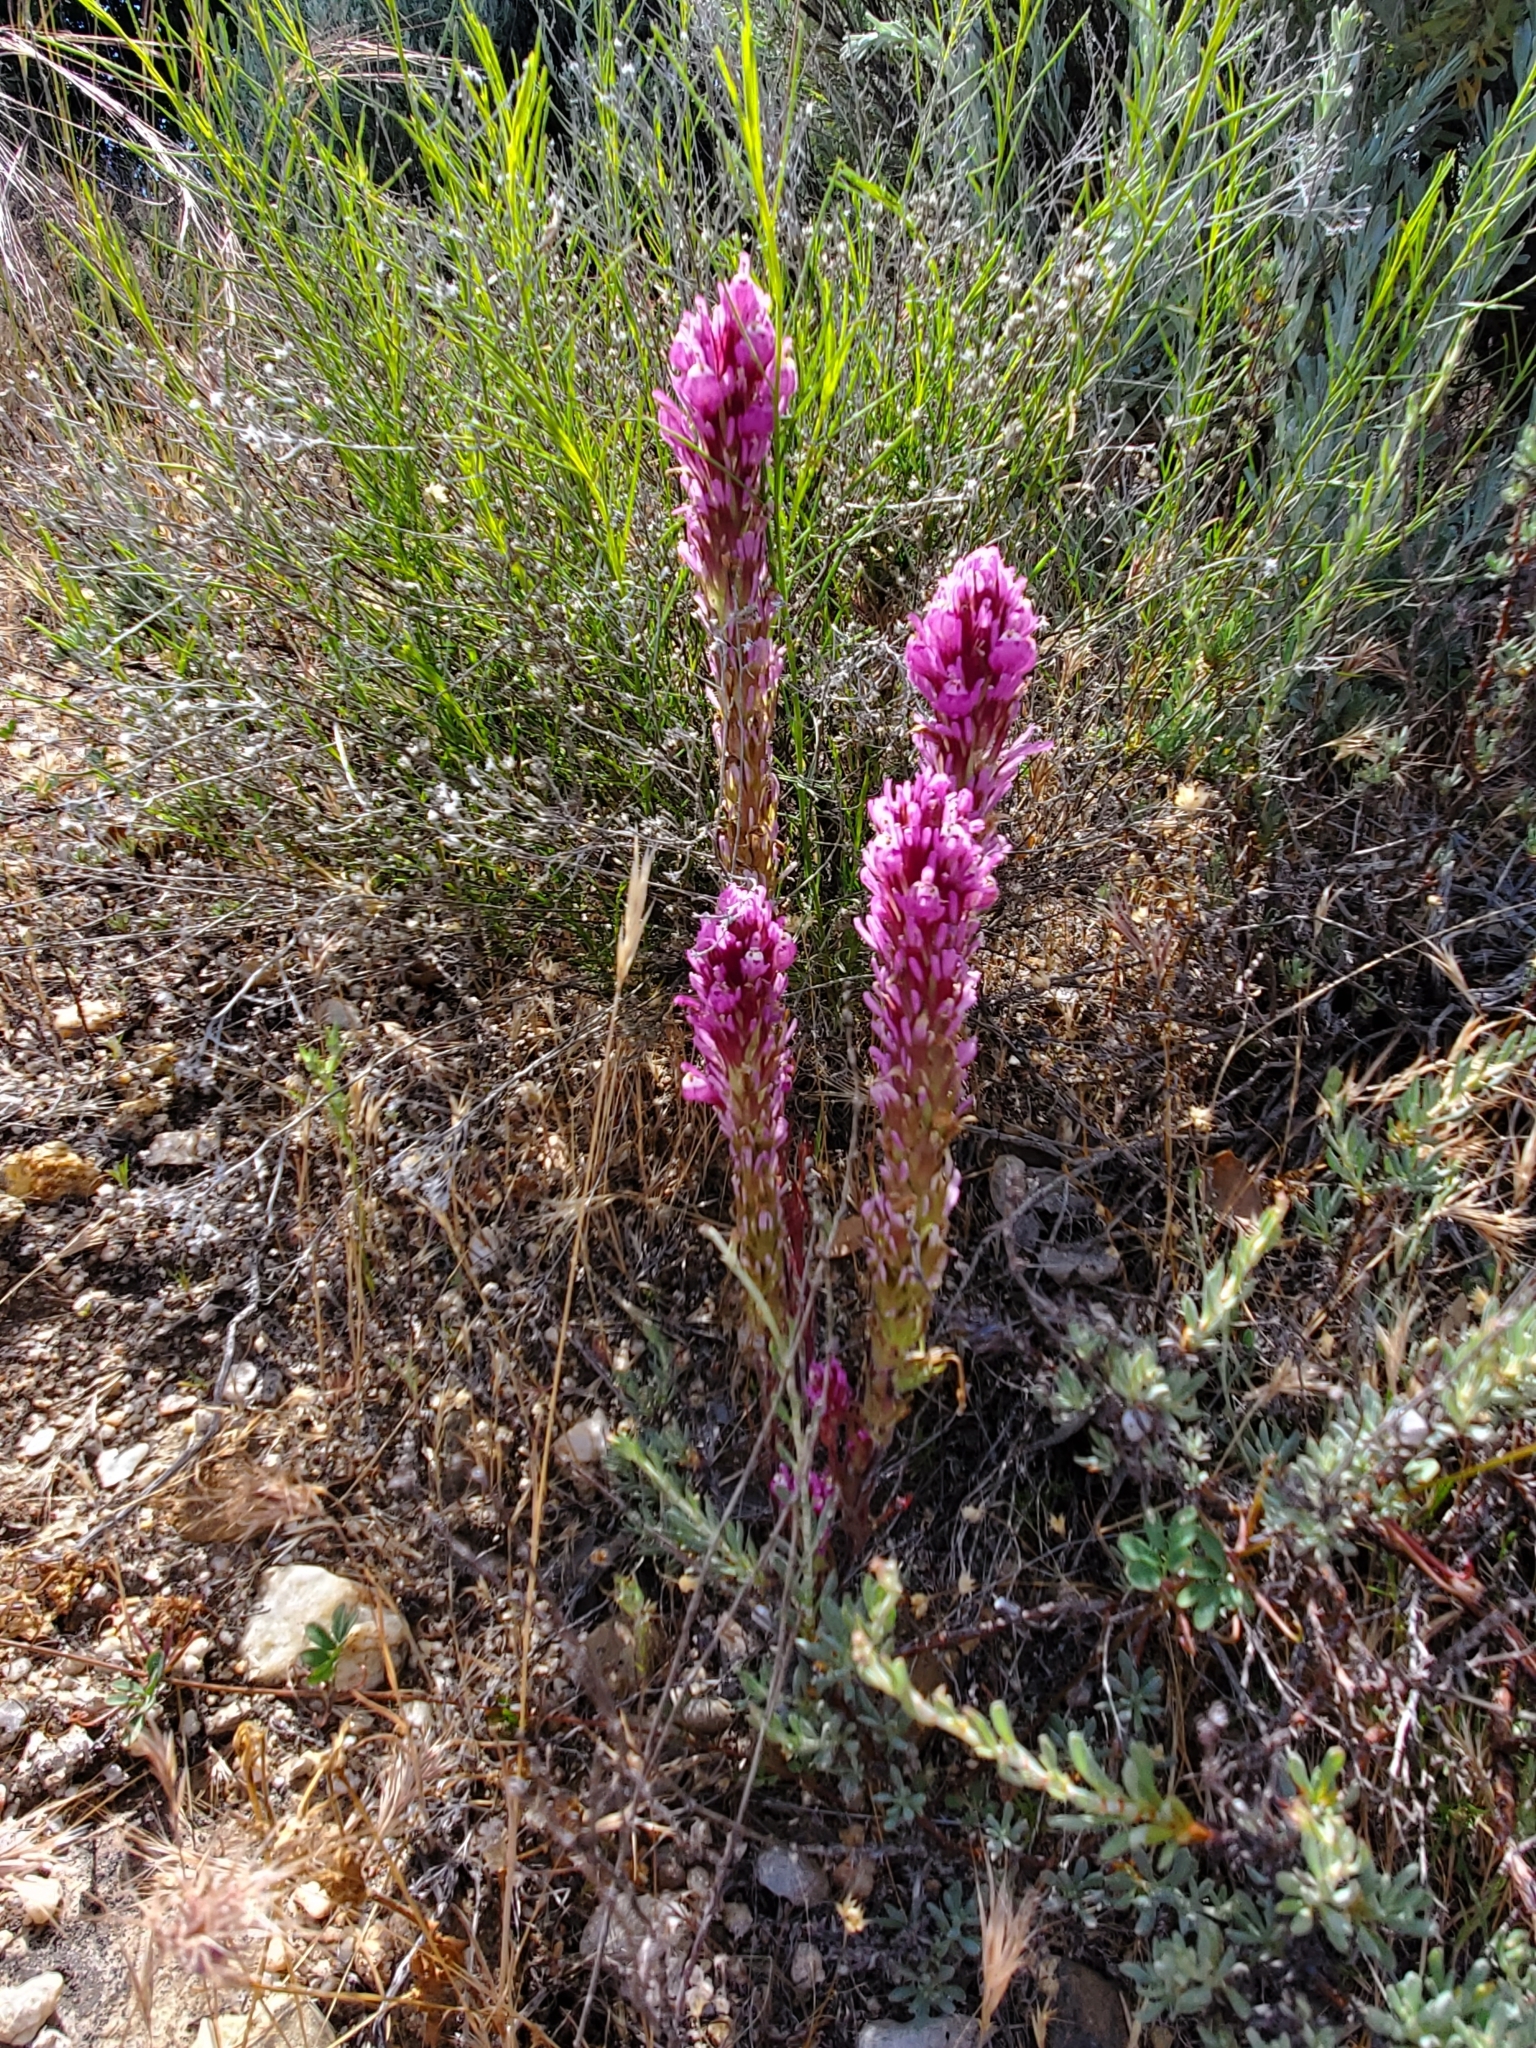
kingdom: Plantae
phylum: Tracheophyta
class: Magnoliopsida
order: Lamiales
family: Orobanchaceae
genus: Castilleja
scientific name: Castilleja exserta
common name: Purple owl-clover
